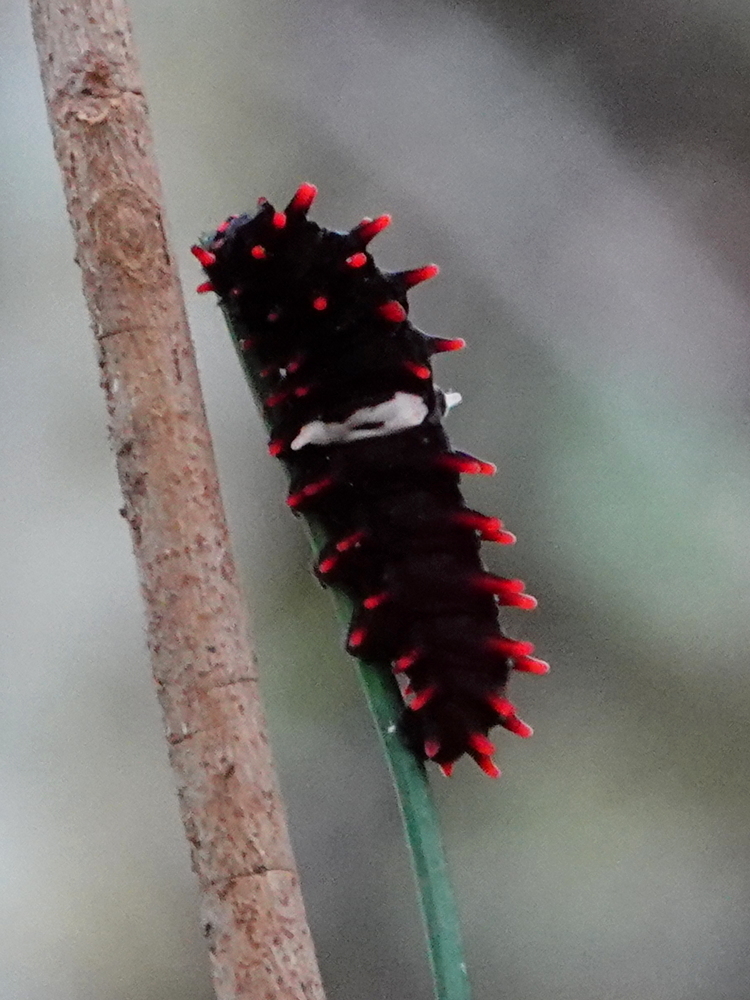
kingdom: Animalia
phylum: Arthropoda
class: Insecta
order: Lepidoptera
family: Papilionidae
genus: Pachliopta
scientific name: Pachliopta aristolochiae
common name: Common rose
